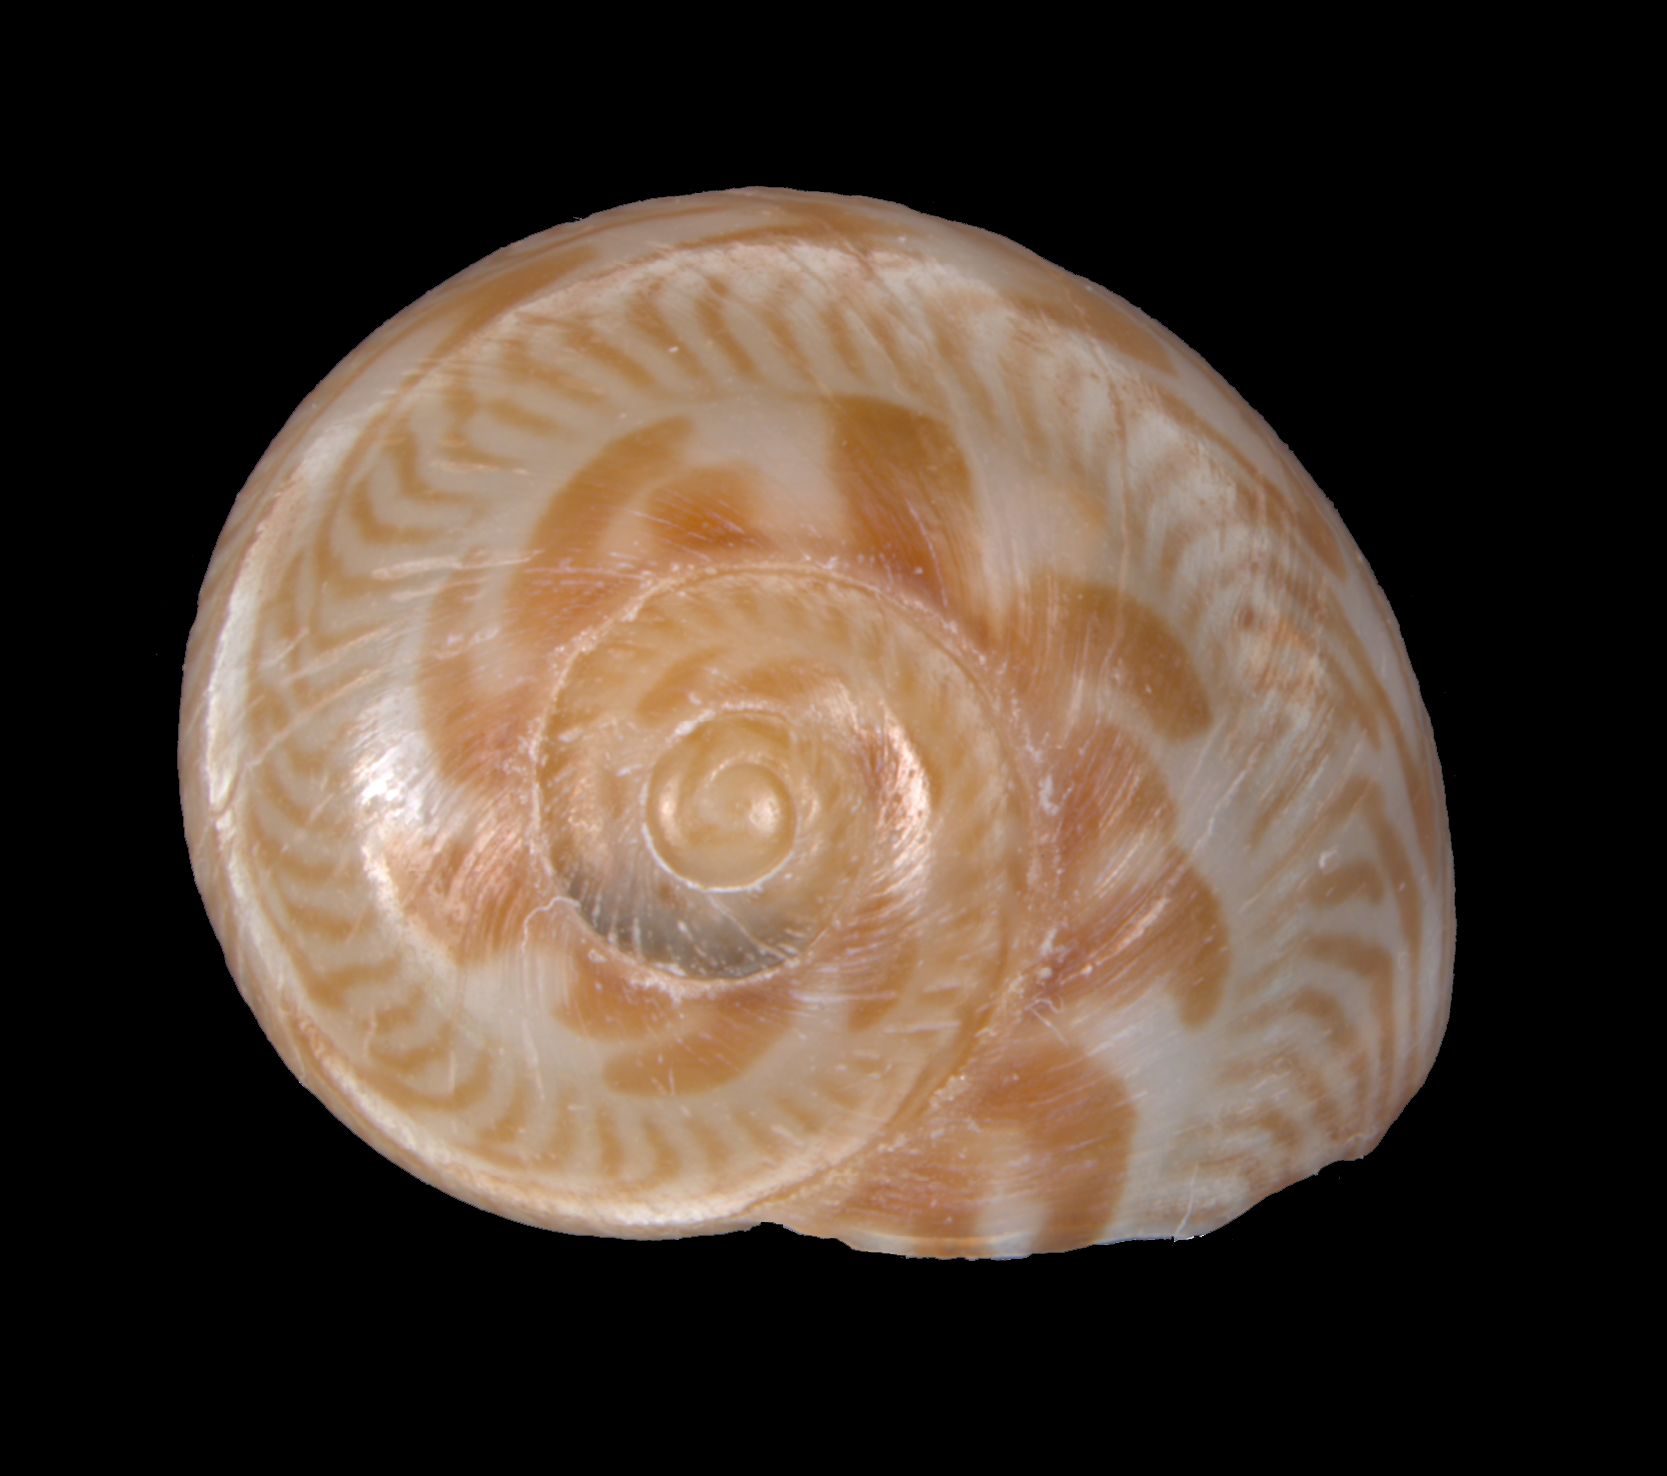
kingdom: Animalia
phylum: Mollusca
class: Gastropoda
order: Littorinimorpha
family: Naticidae
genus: Tanea
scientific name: Tanea sagittata
